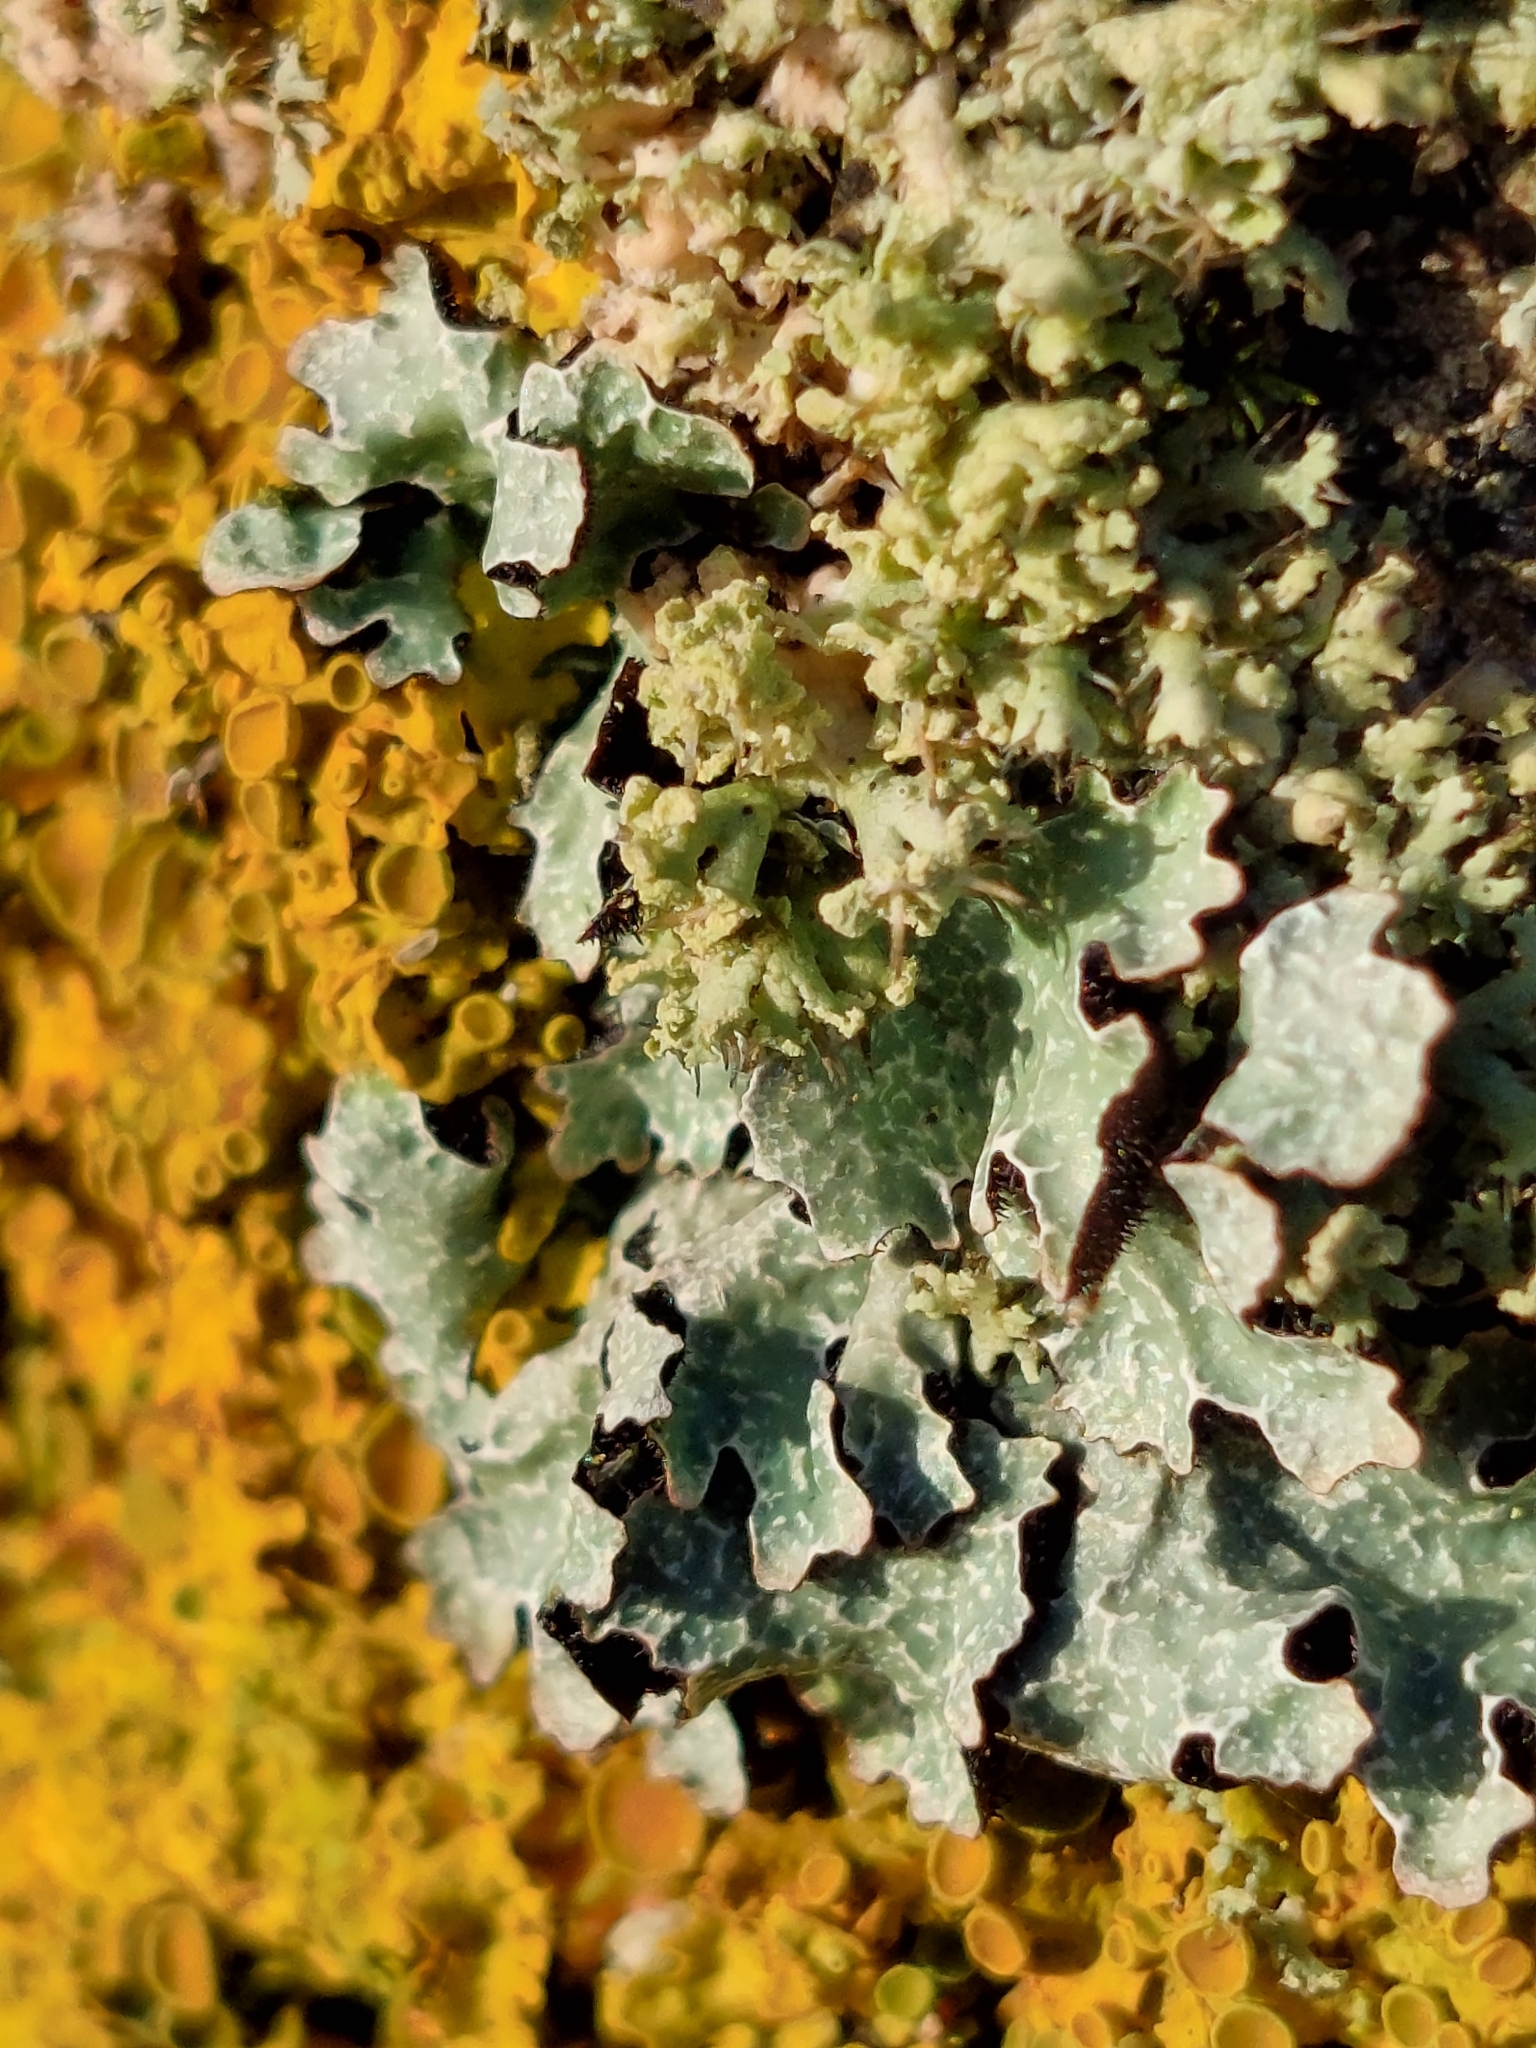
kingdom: Fungi
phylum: Ascomycota
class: Lecanoromycetes
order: Lecanorales
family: Parmeliaceae
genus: Parmelia
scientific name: Parmelia sulcata
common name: Netted shield lichen
